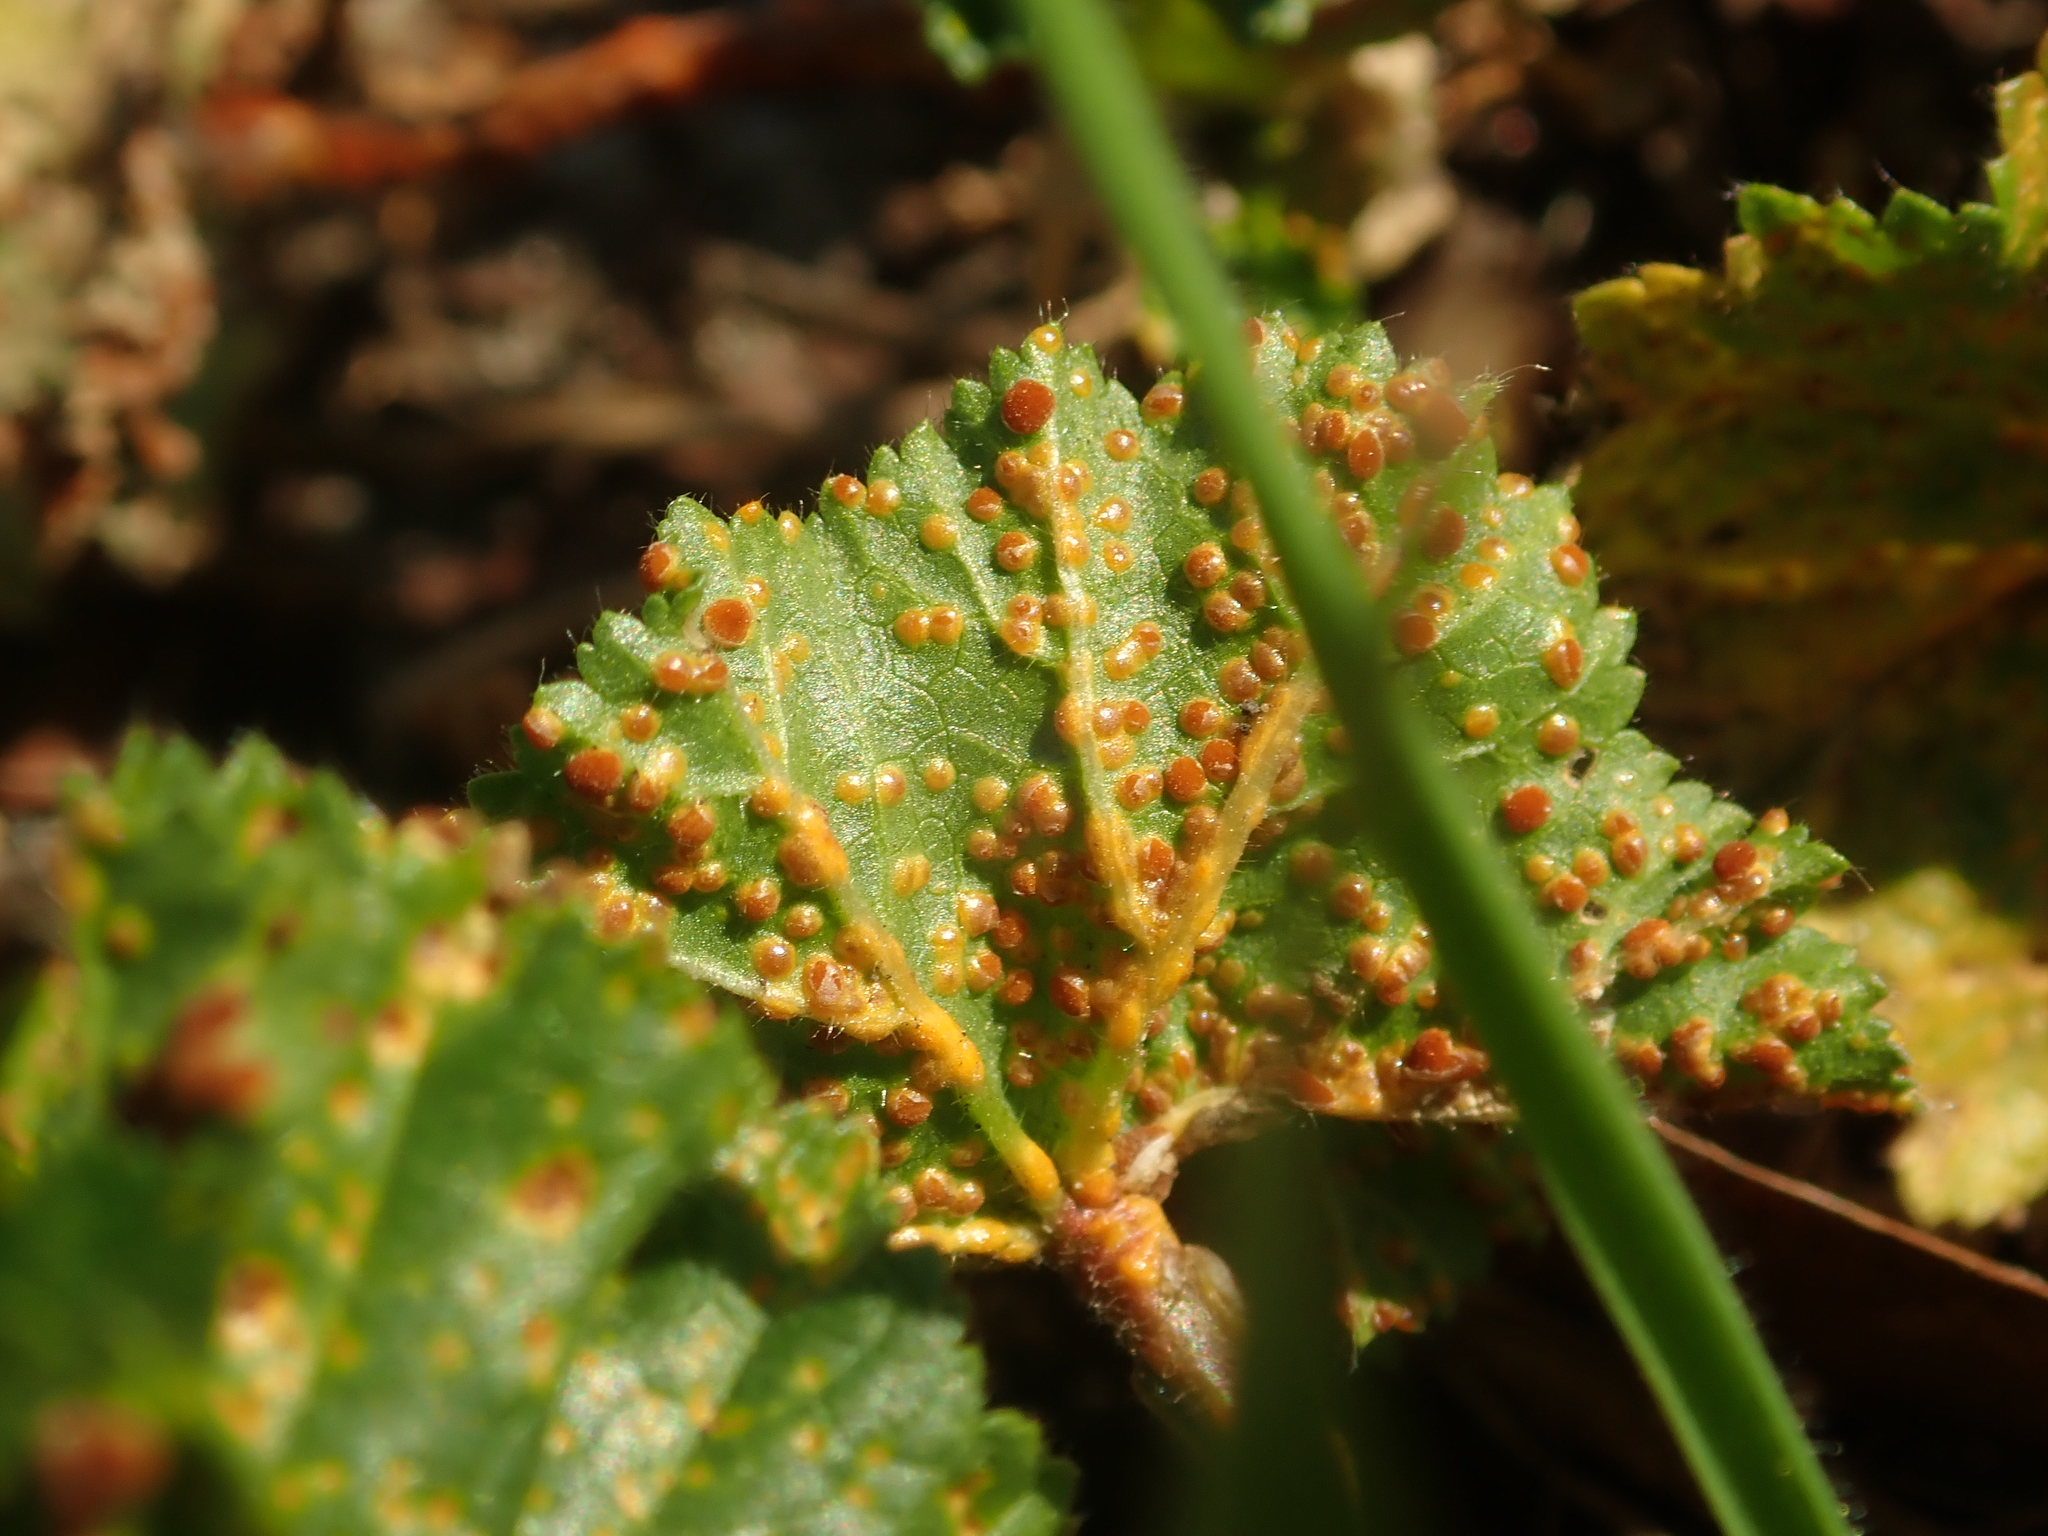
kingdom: Fungi
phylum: Basidiomycota
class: Pucciniomycetes
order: Pucciniales
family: Pucciniaceae
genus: Puccinia
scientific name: Puccinia malvacearum
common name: Hollyhock rust
